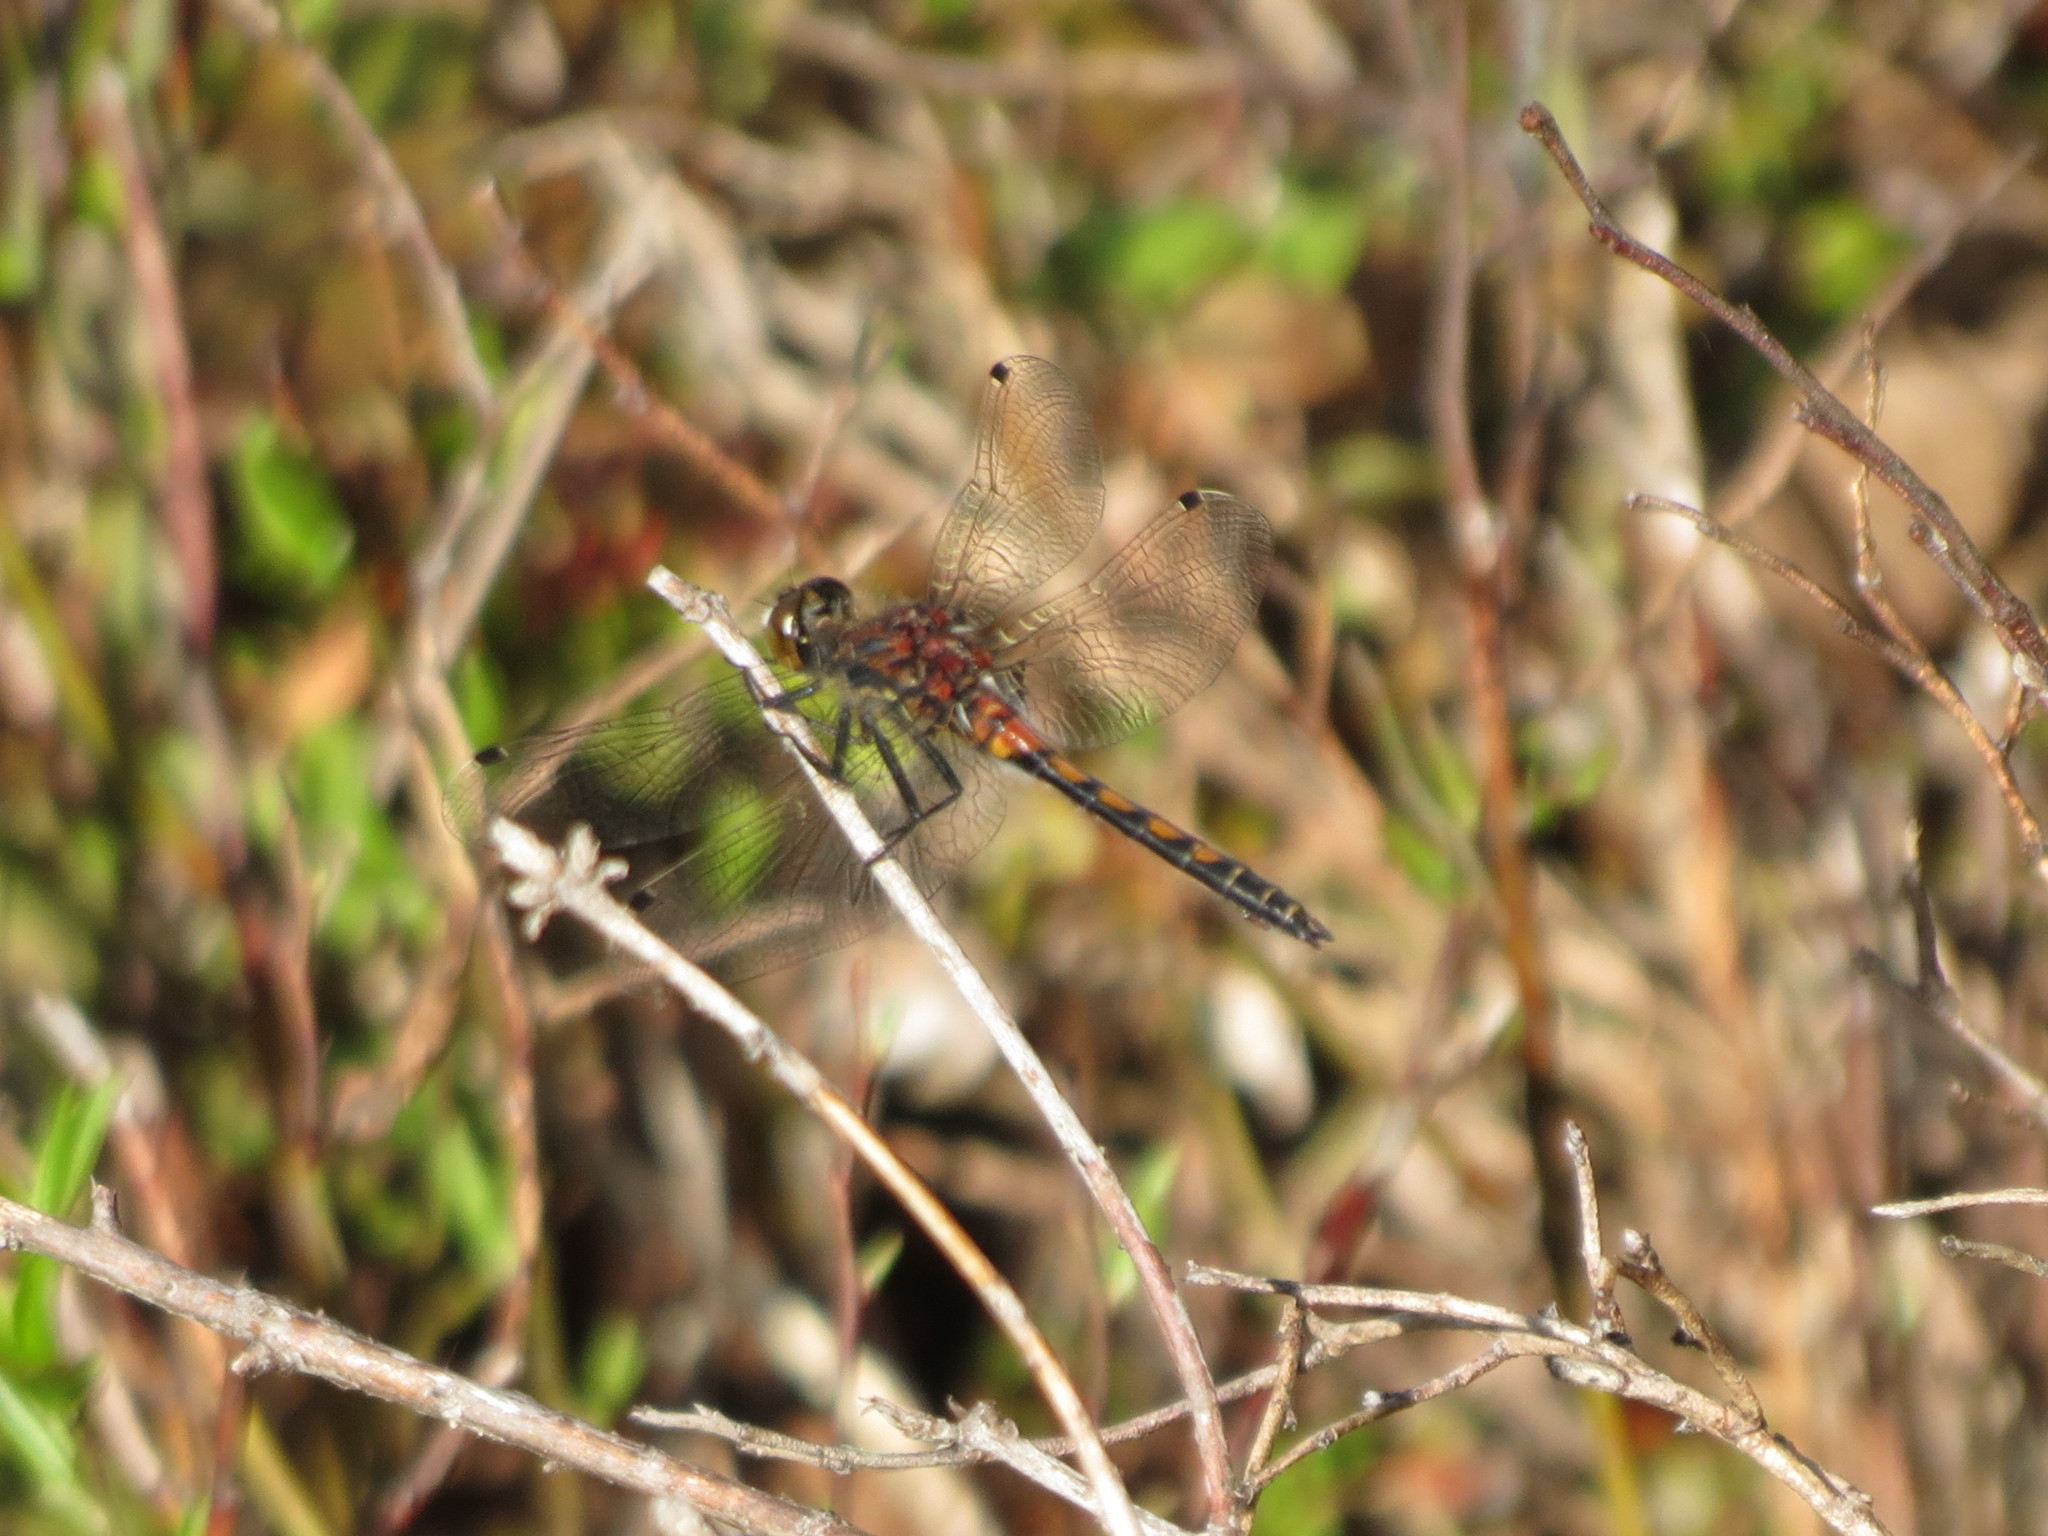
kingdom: Animalia
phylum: Arthropoda
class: Insecta
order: Odonata
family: Libellulidae
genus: Leucorrhinia
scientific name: Leucorrhinia hudsonica
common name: Hudsonian whiteface
